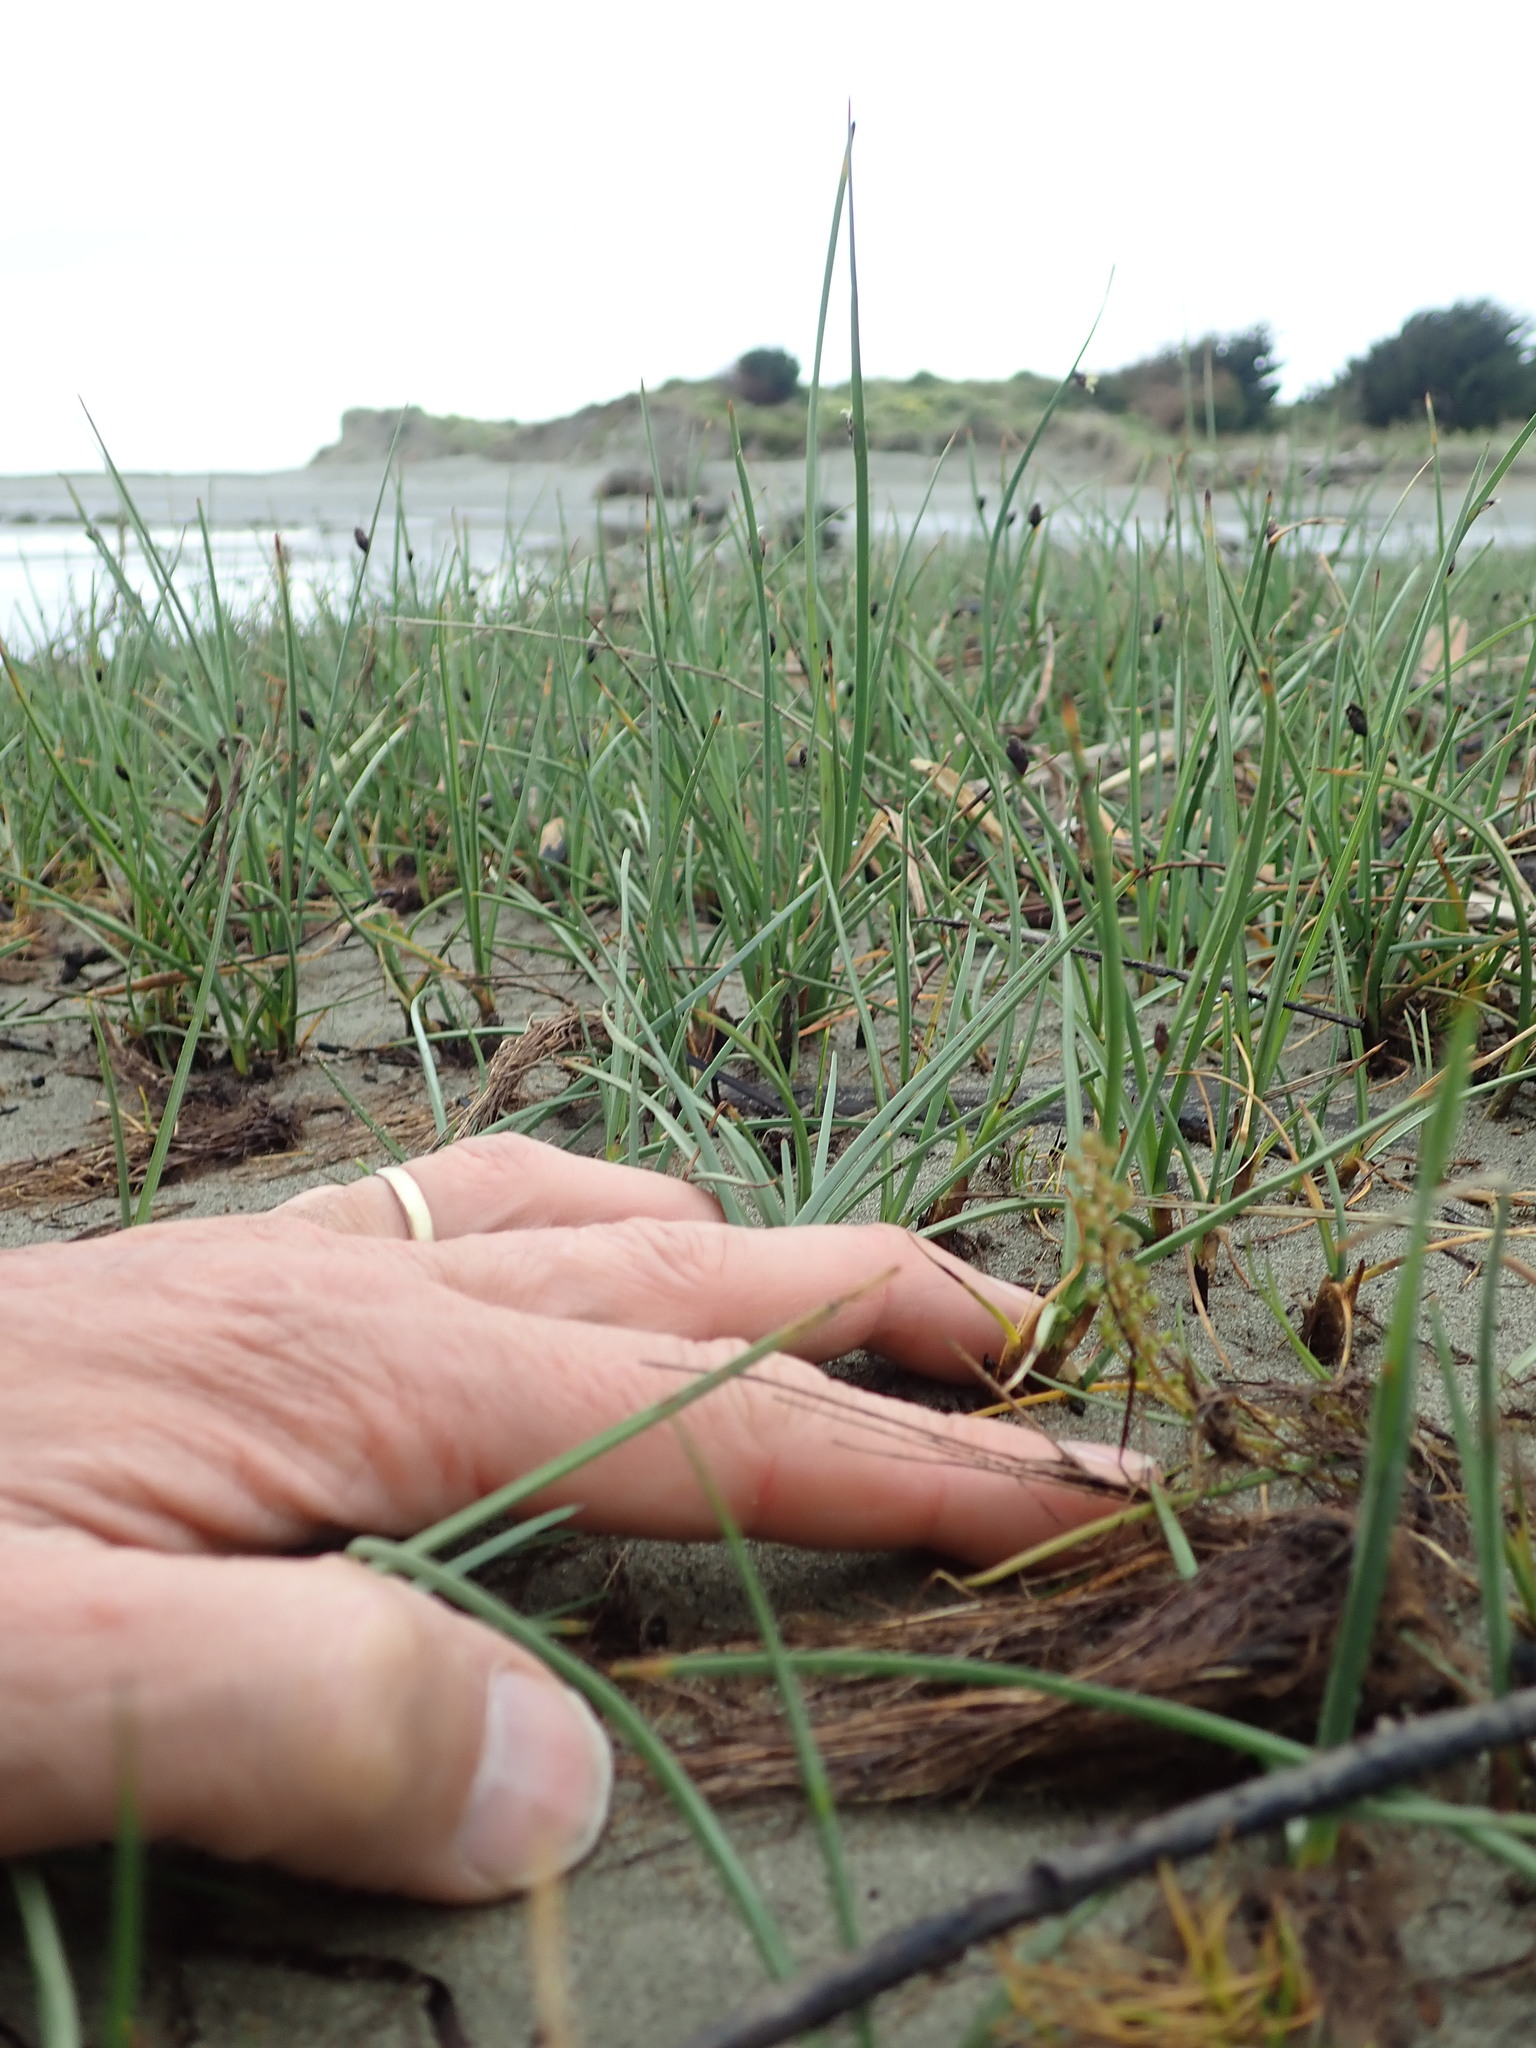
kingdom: Plantae
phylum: Tracheophyta
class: Liliopsida
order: Alismatales
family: Juncaginaceae
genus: Triglochin
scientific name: Triglochin striata
